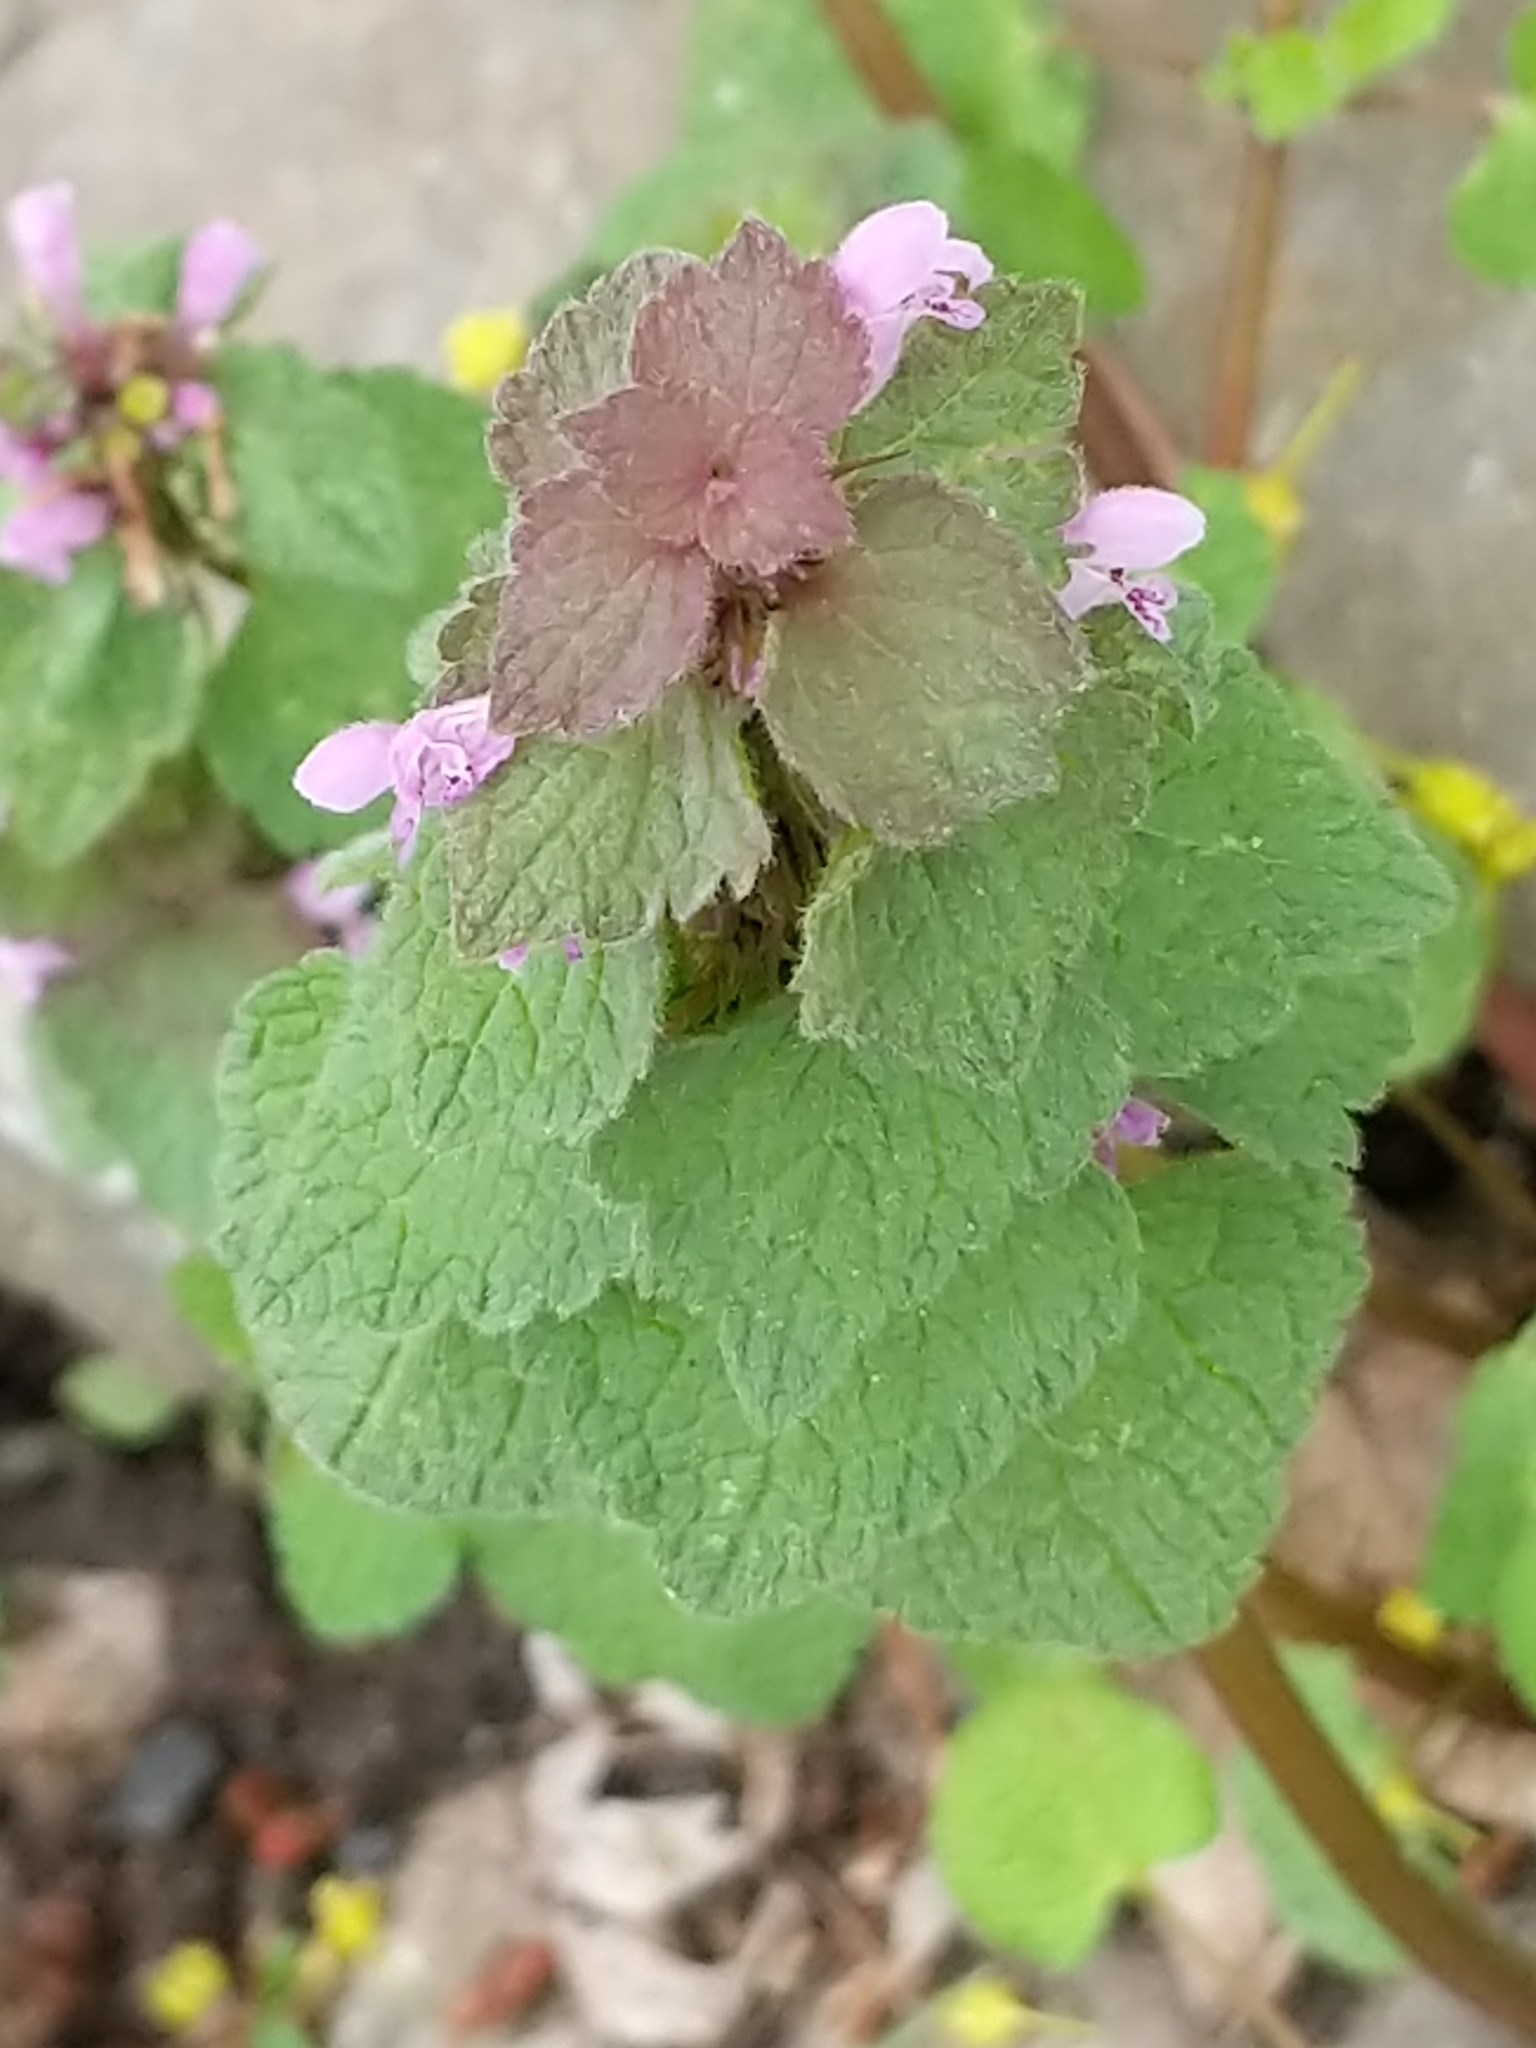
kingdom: Plantae
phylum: Tracheophyta
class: Magnoliopsida
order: Lamiales
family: Lamiaceae
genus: Lamium
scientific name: Lamium purpureum
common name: Red dead-nettle
